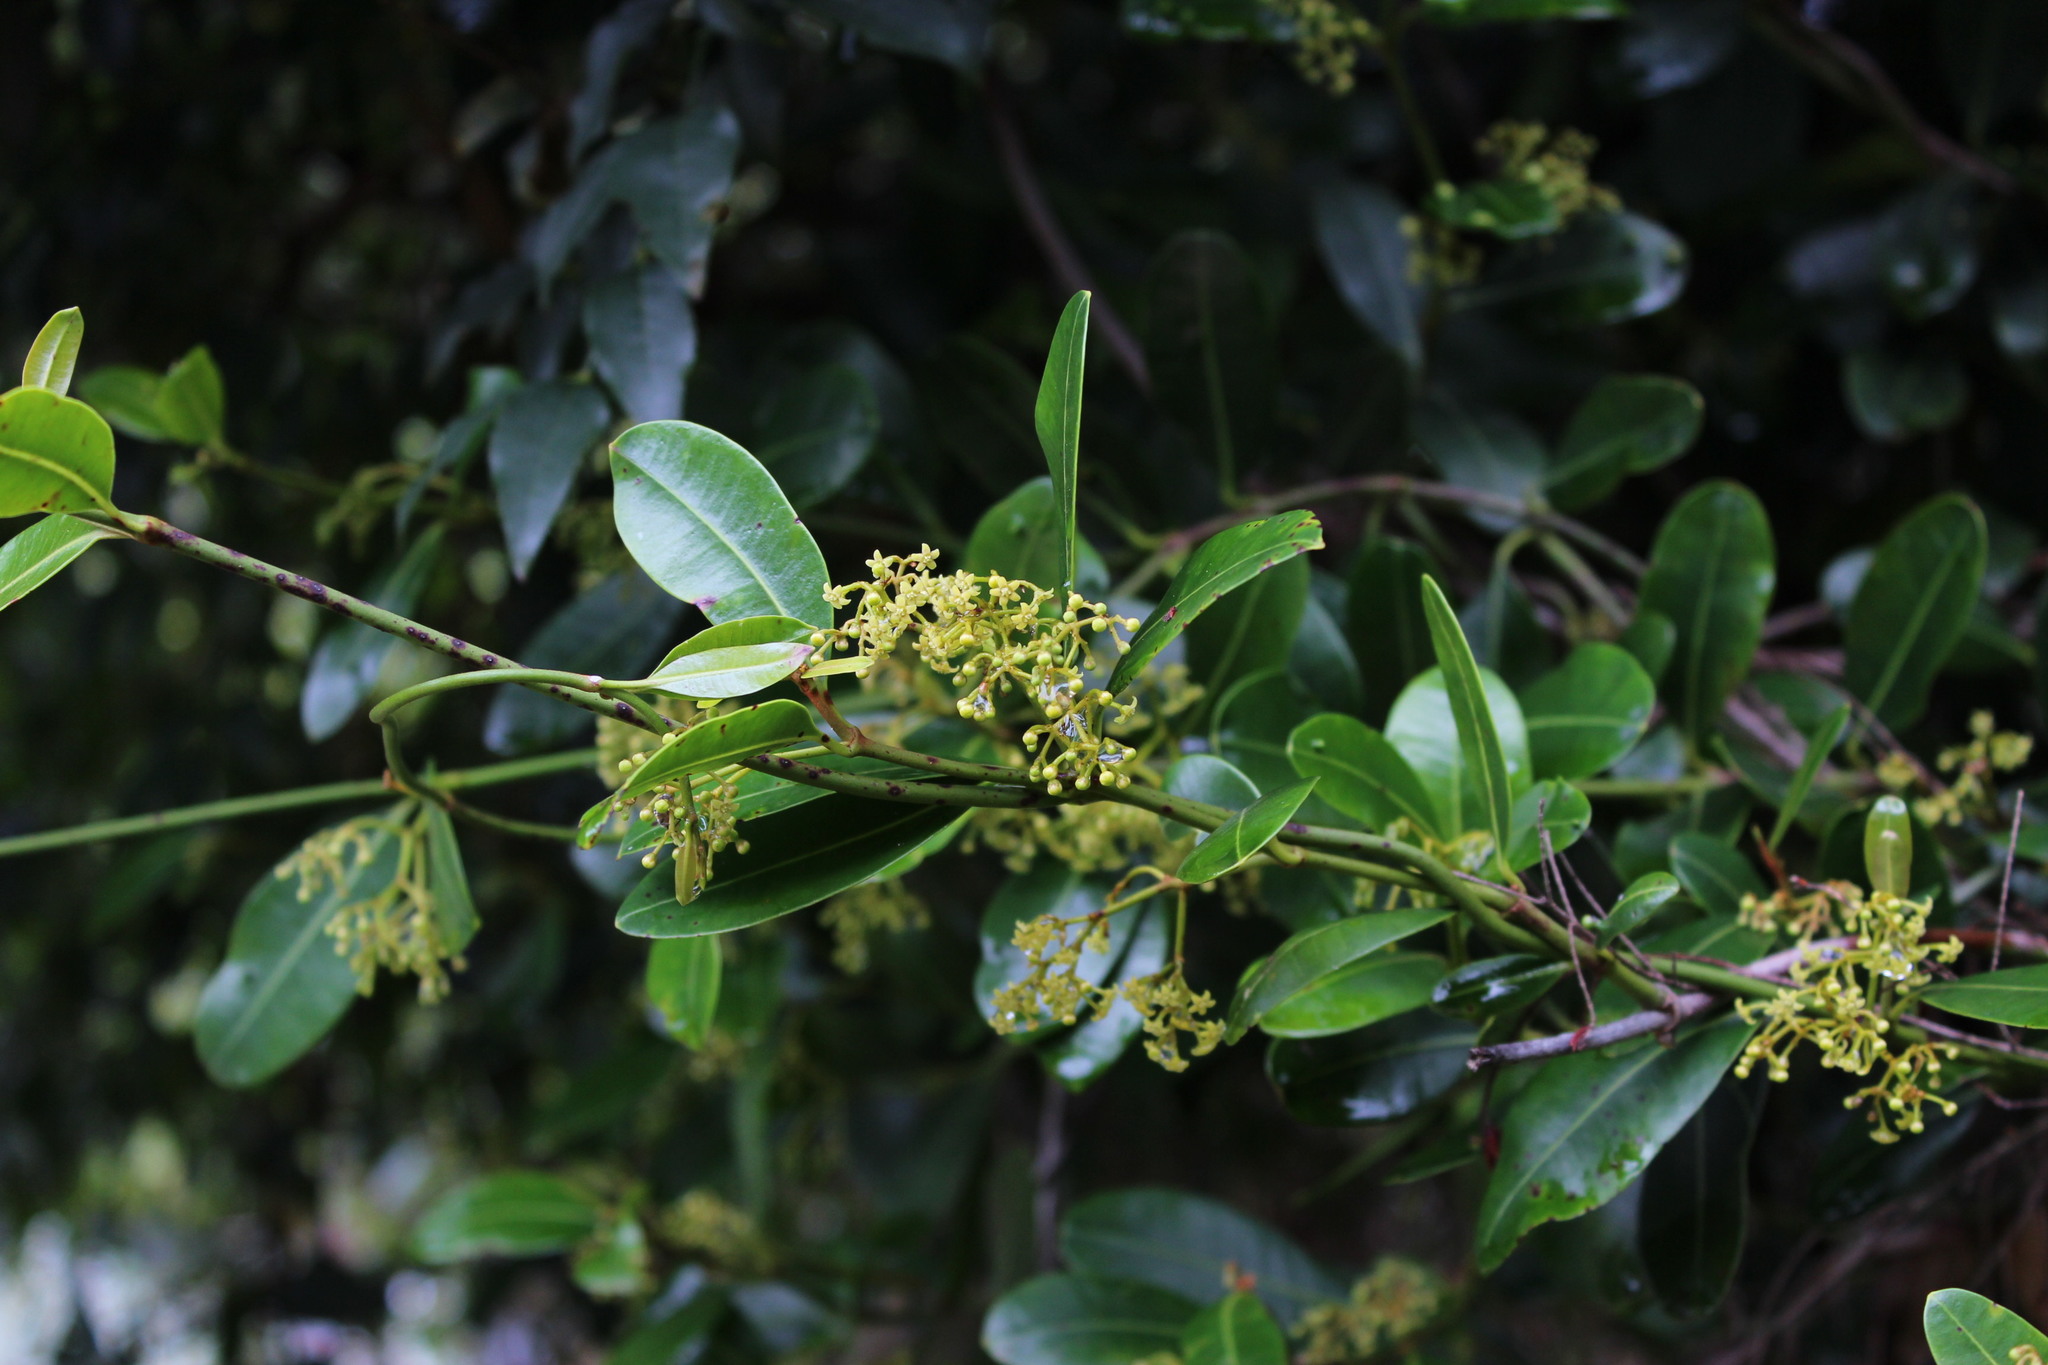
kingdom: Plantae
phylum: Tracheophyta
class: Magnoliopsida
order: Gentianales
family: Apocynaceae
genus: Secamone
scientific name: Secamone alpini
